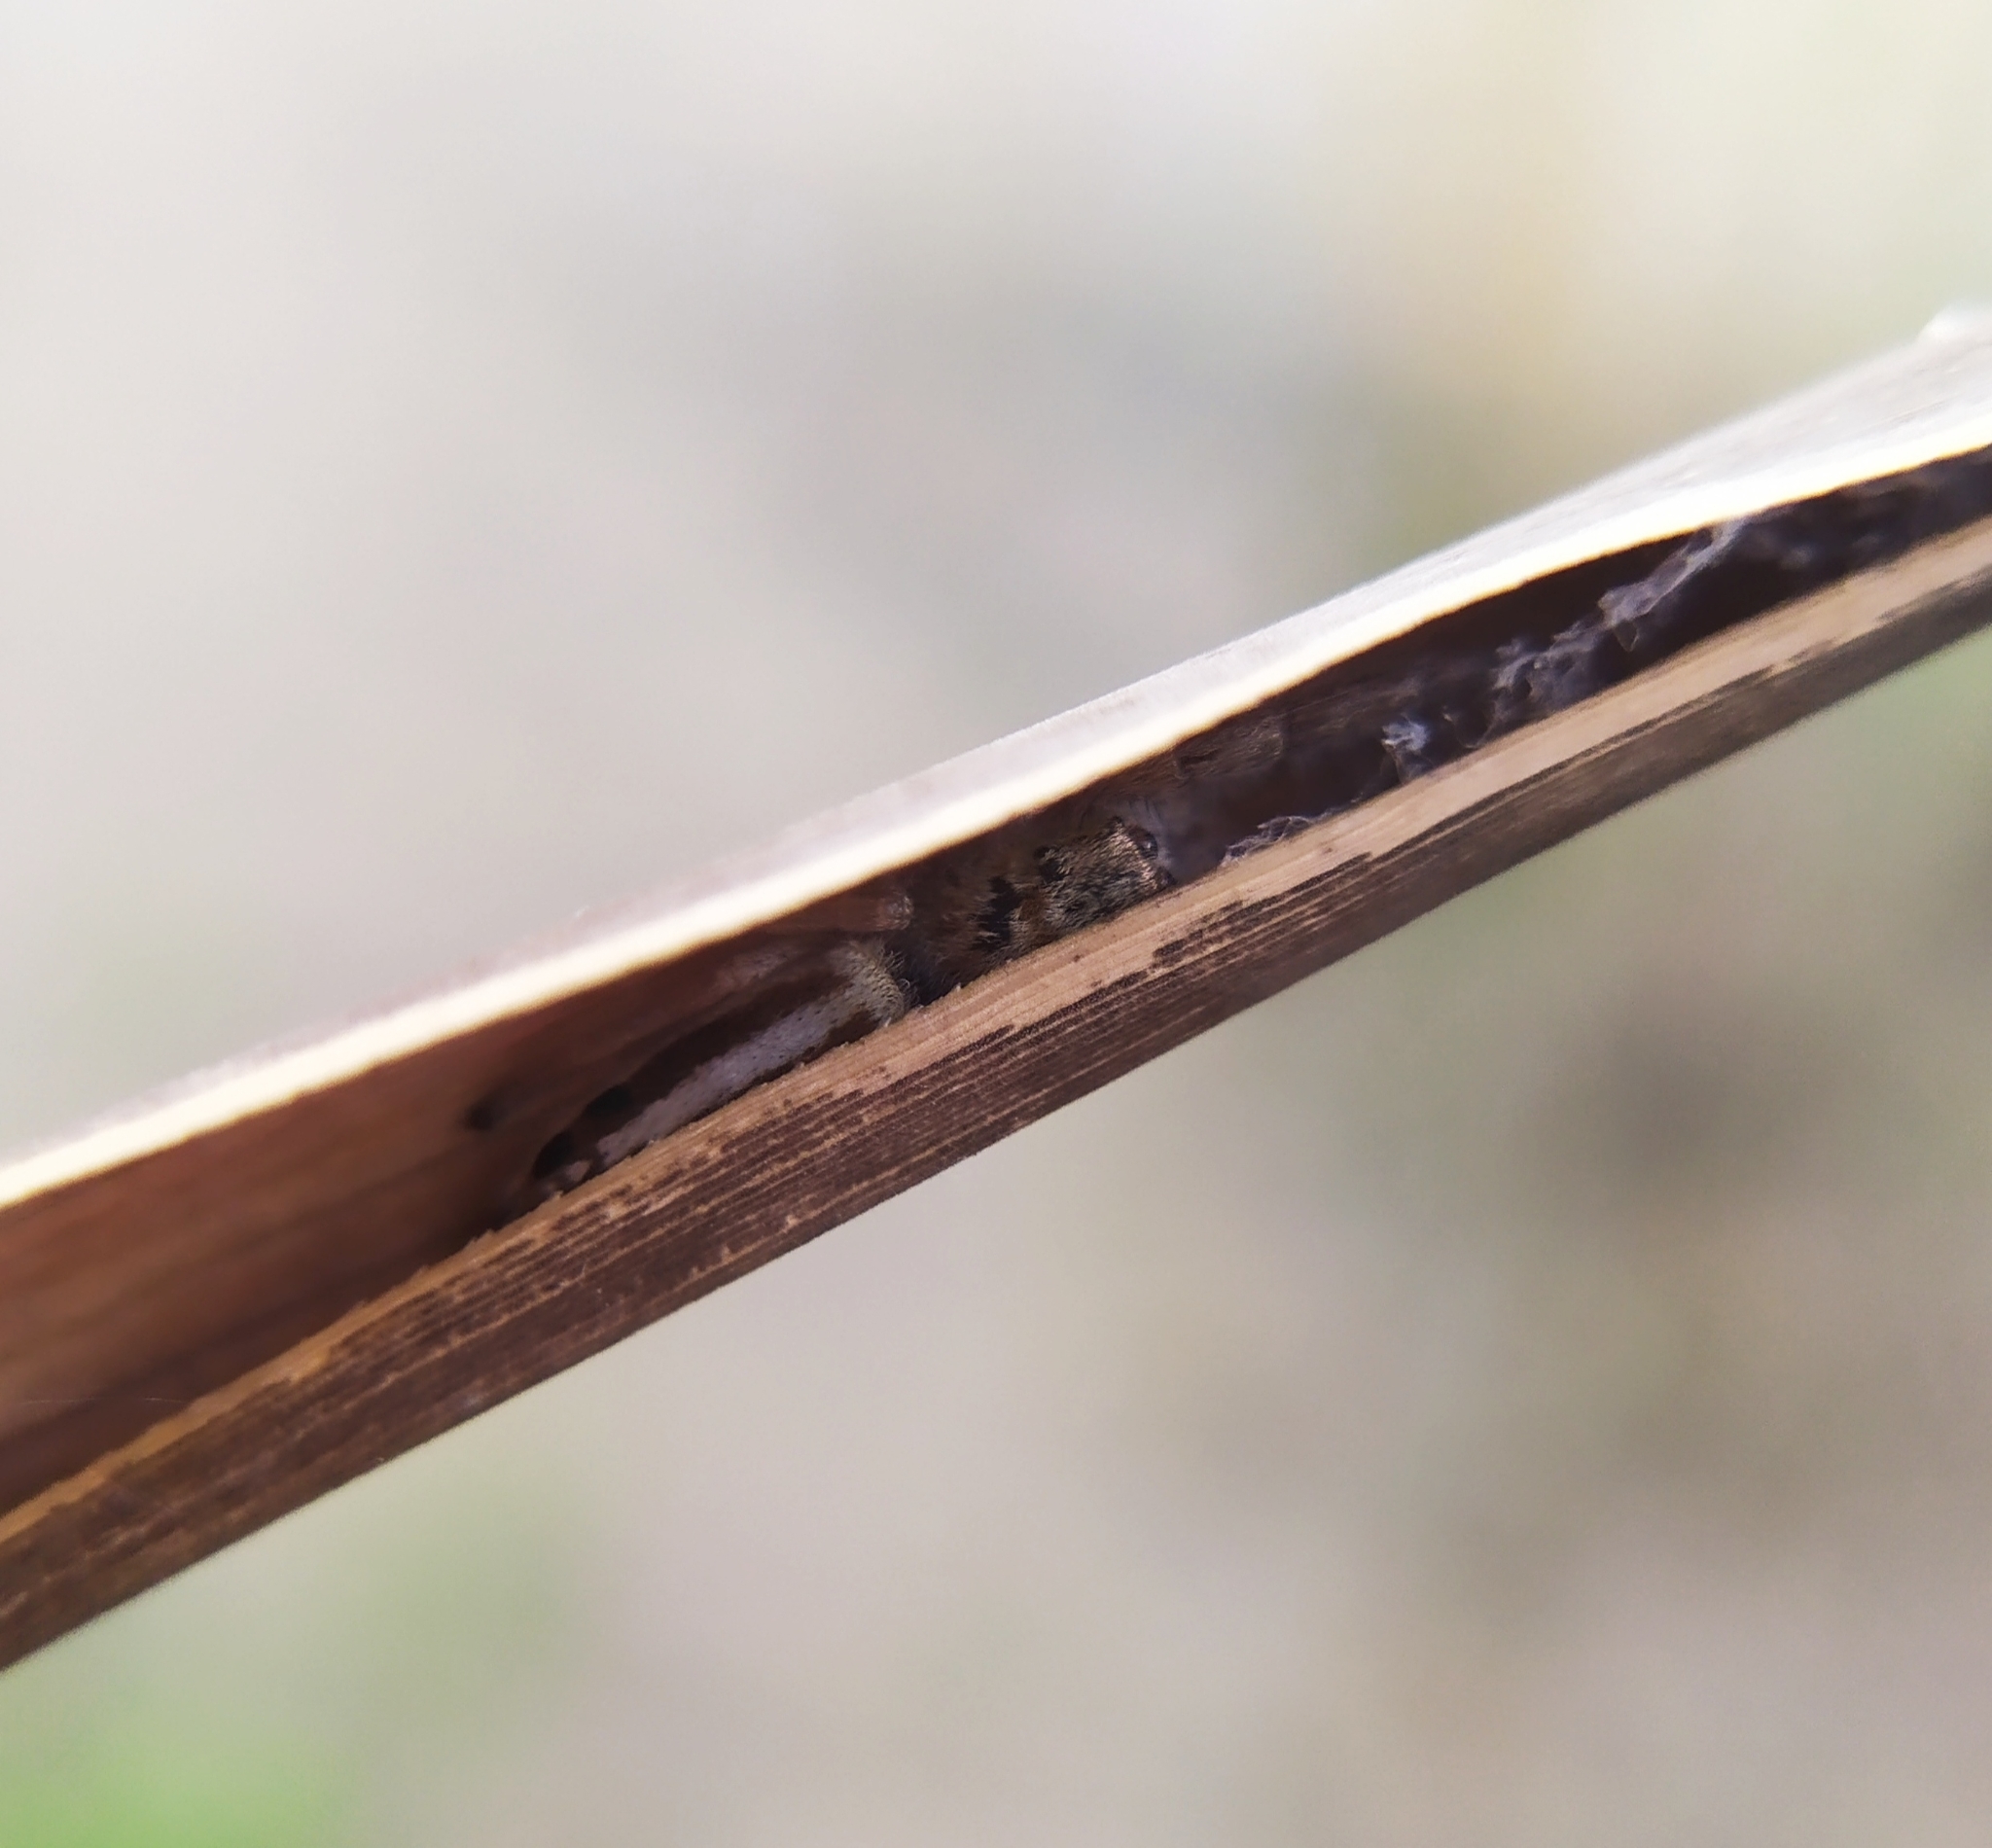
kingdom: Animalia
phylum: Arthropoda
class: Arachnida
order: Araneae
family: Salticidae
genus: Mendoza
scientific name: Mendoza canestrinii
